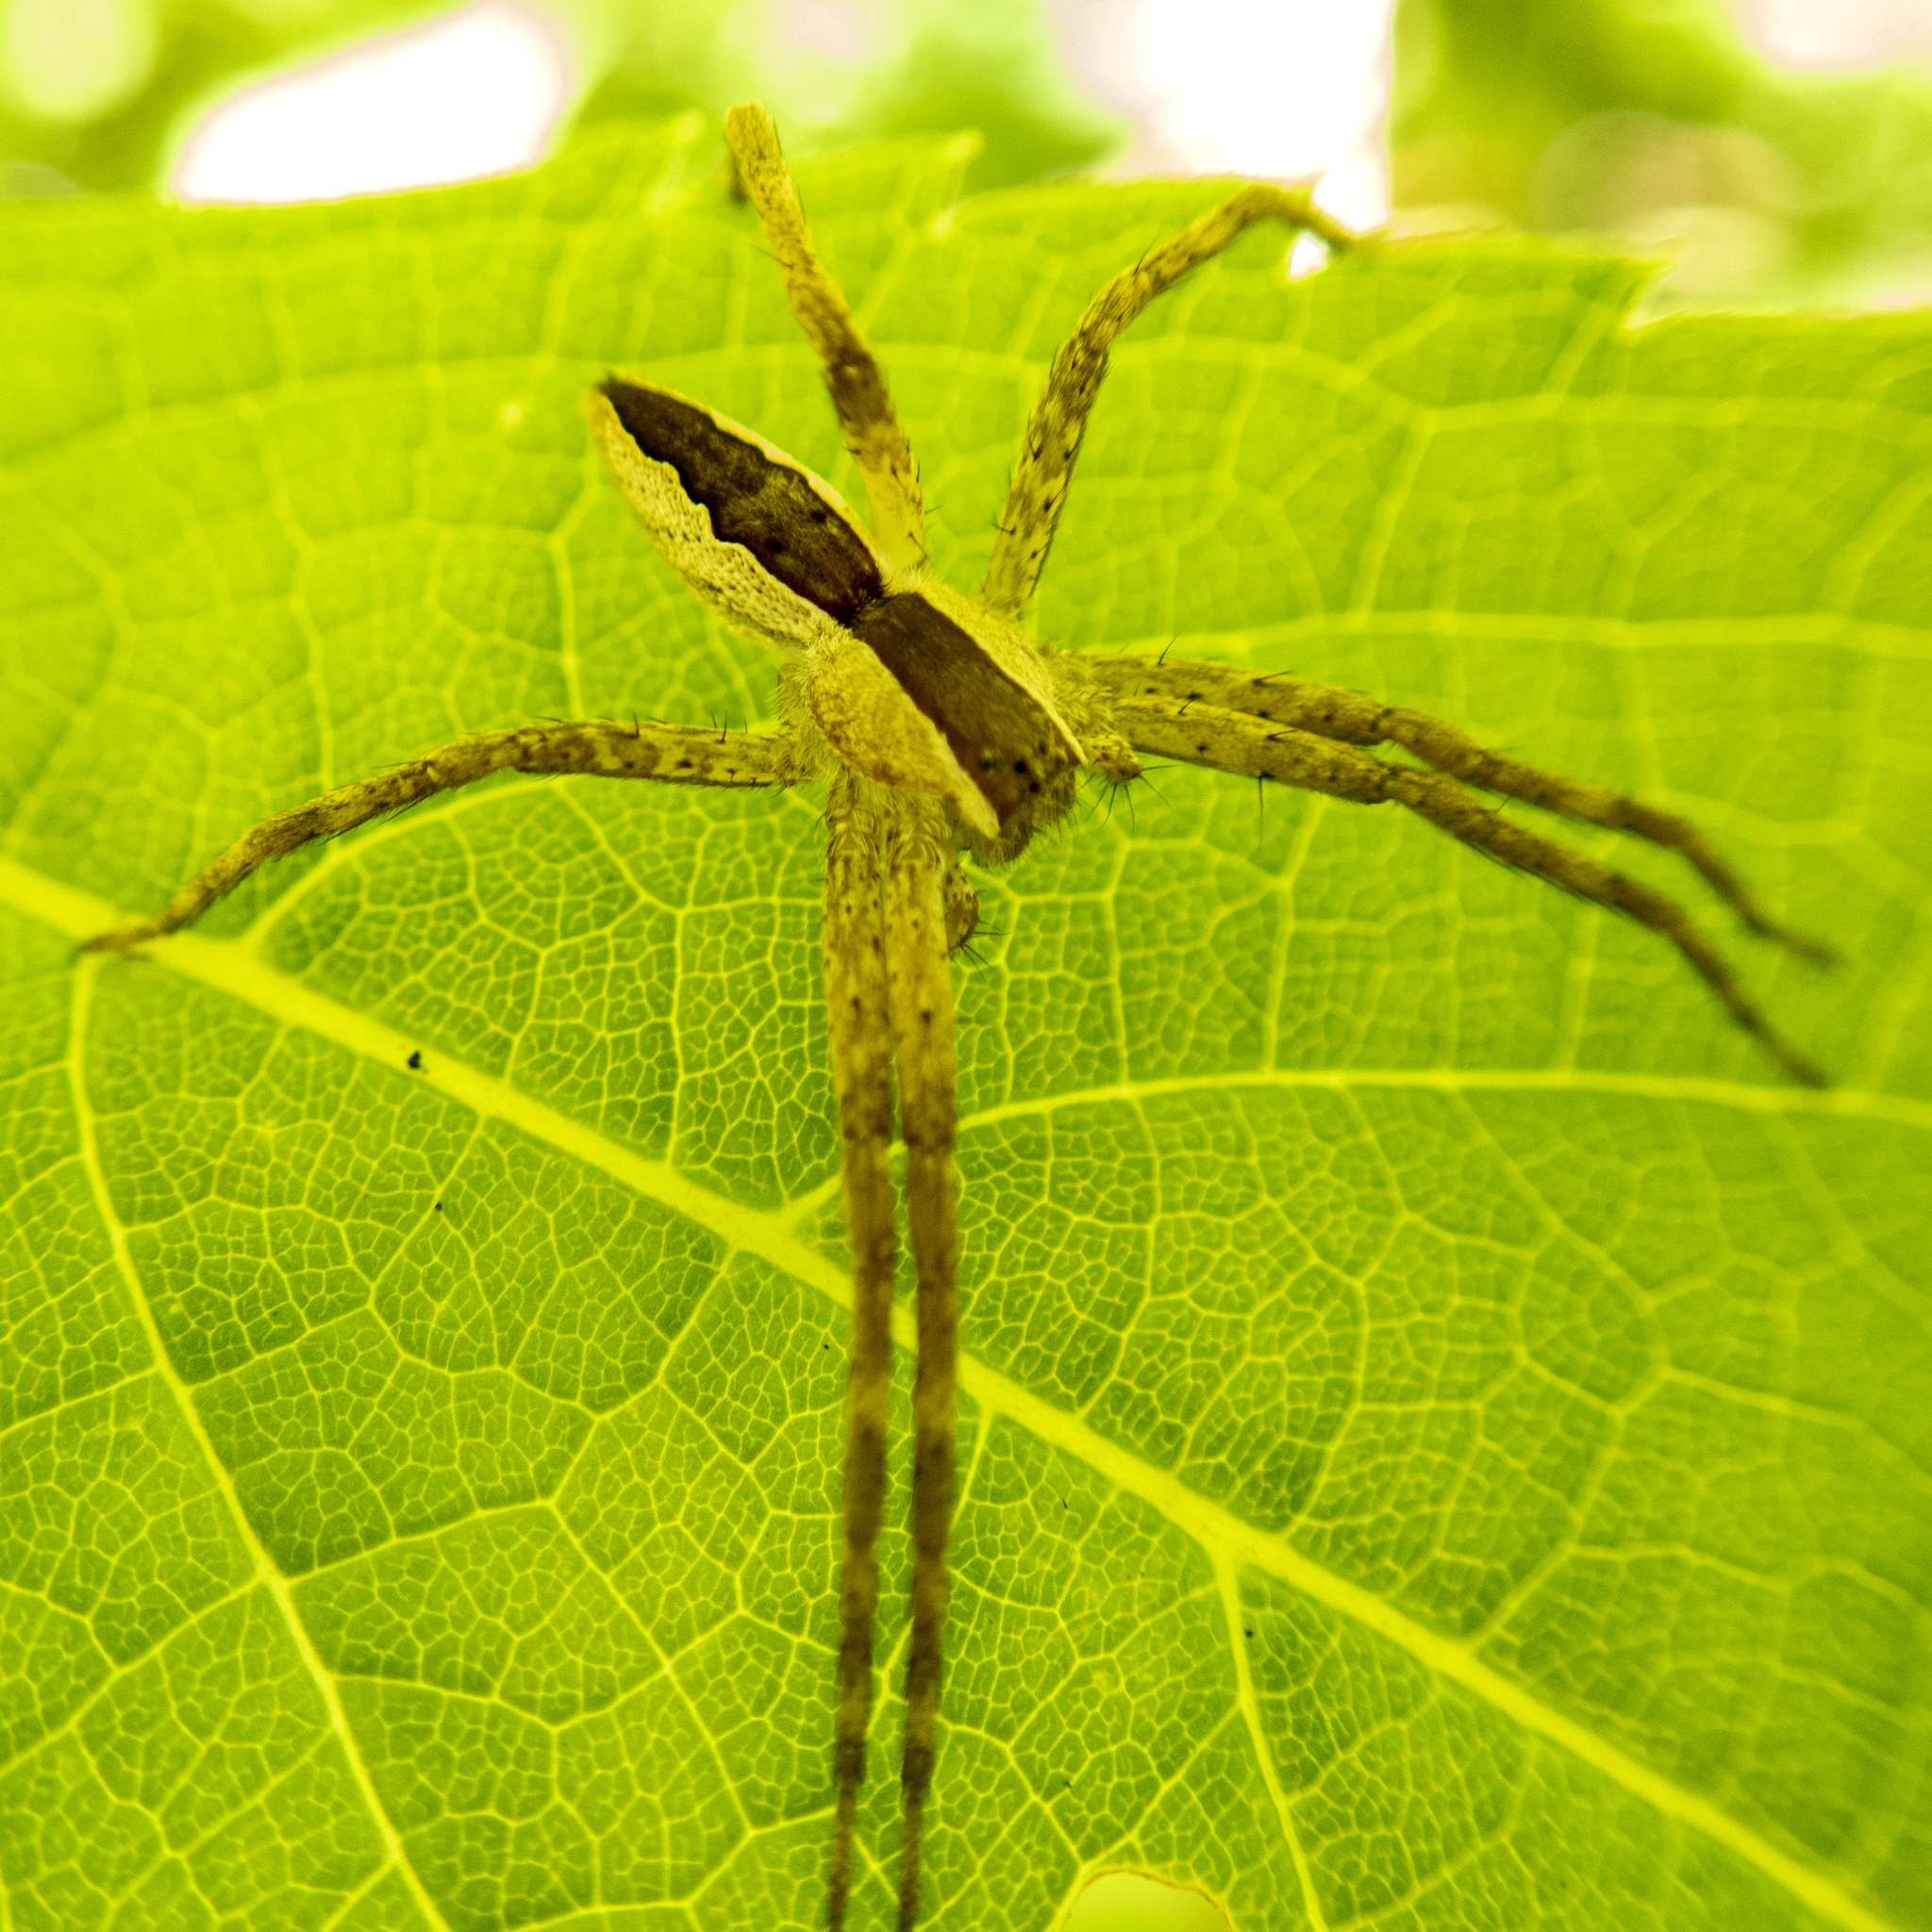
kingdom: Animalia
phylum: Arthropoda
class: Arachnida
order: Araneae
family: Pisauridae
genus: Pisaurina
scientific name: Pisaurina mira
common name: American nursery web spider
